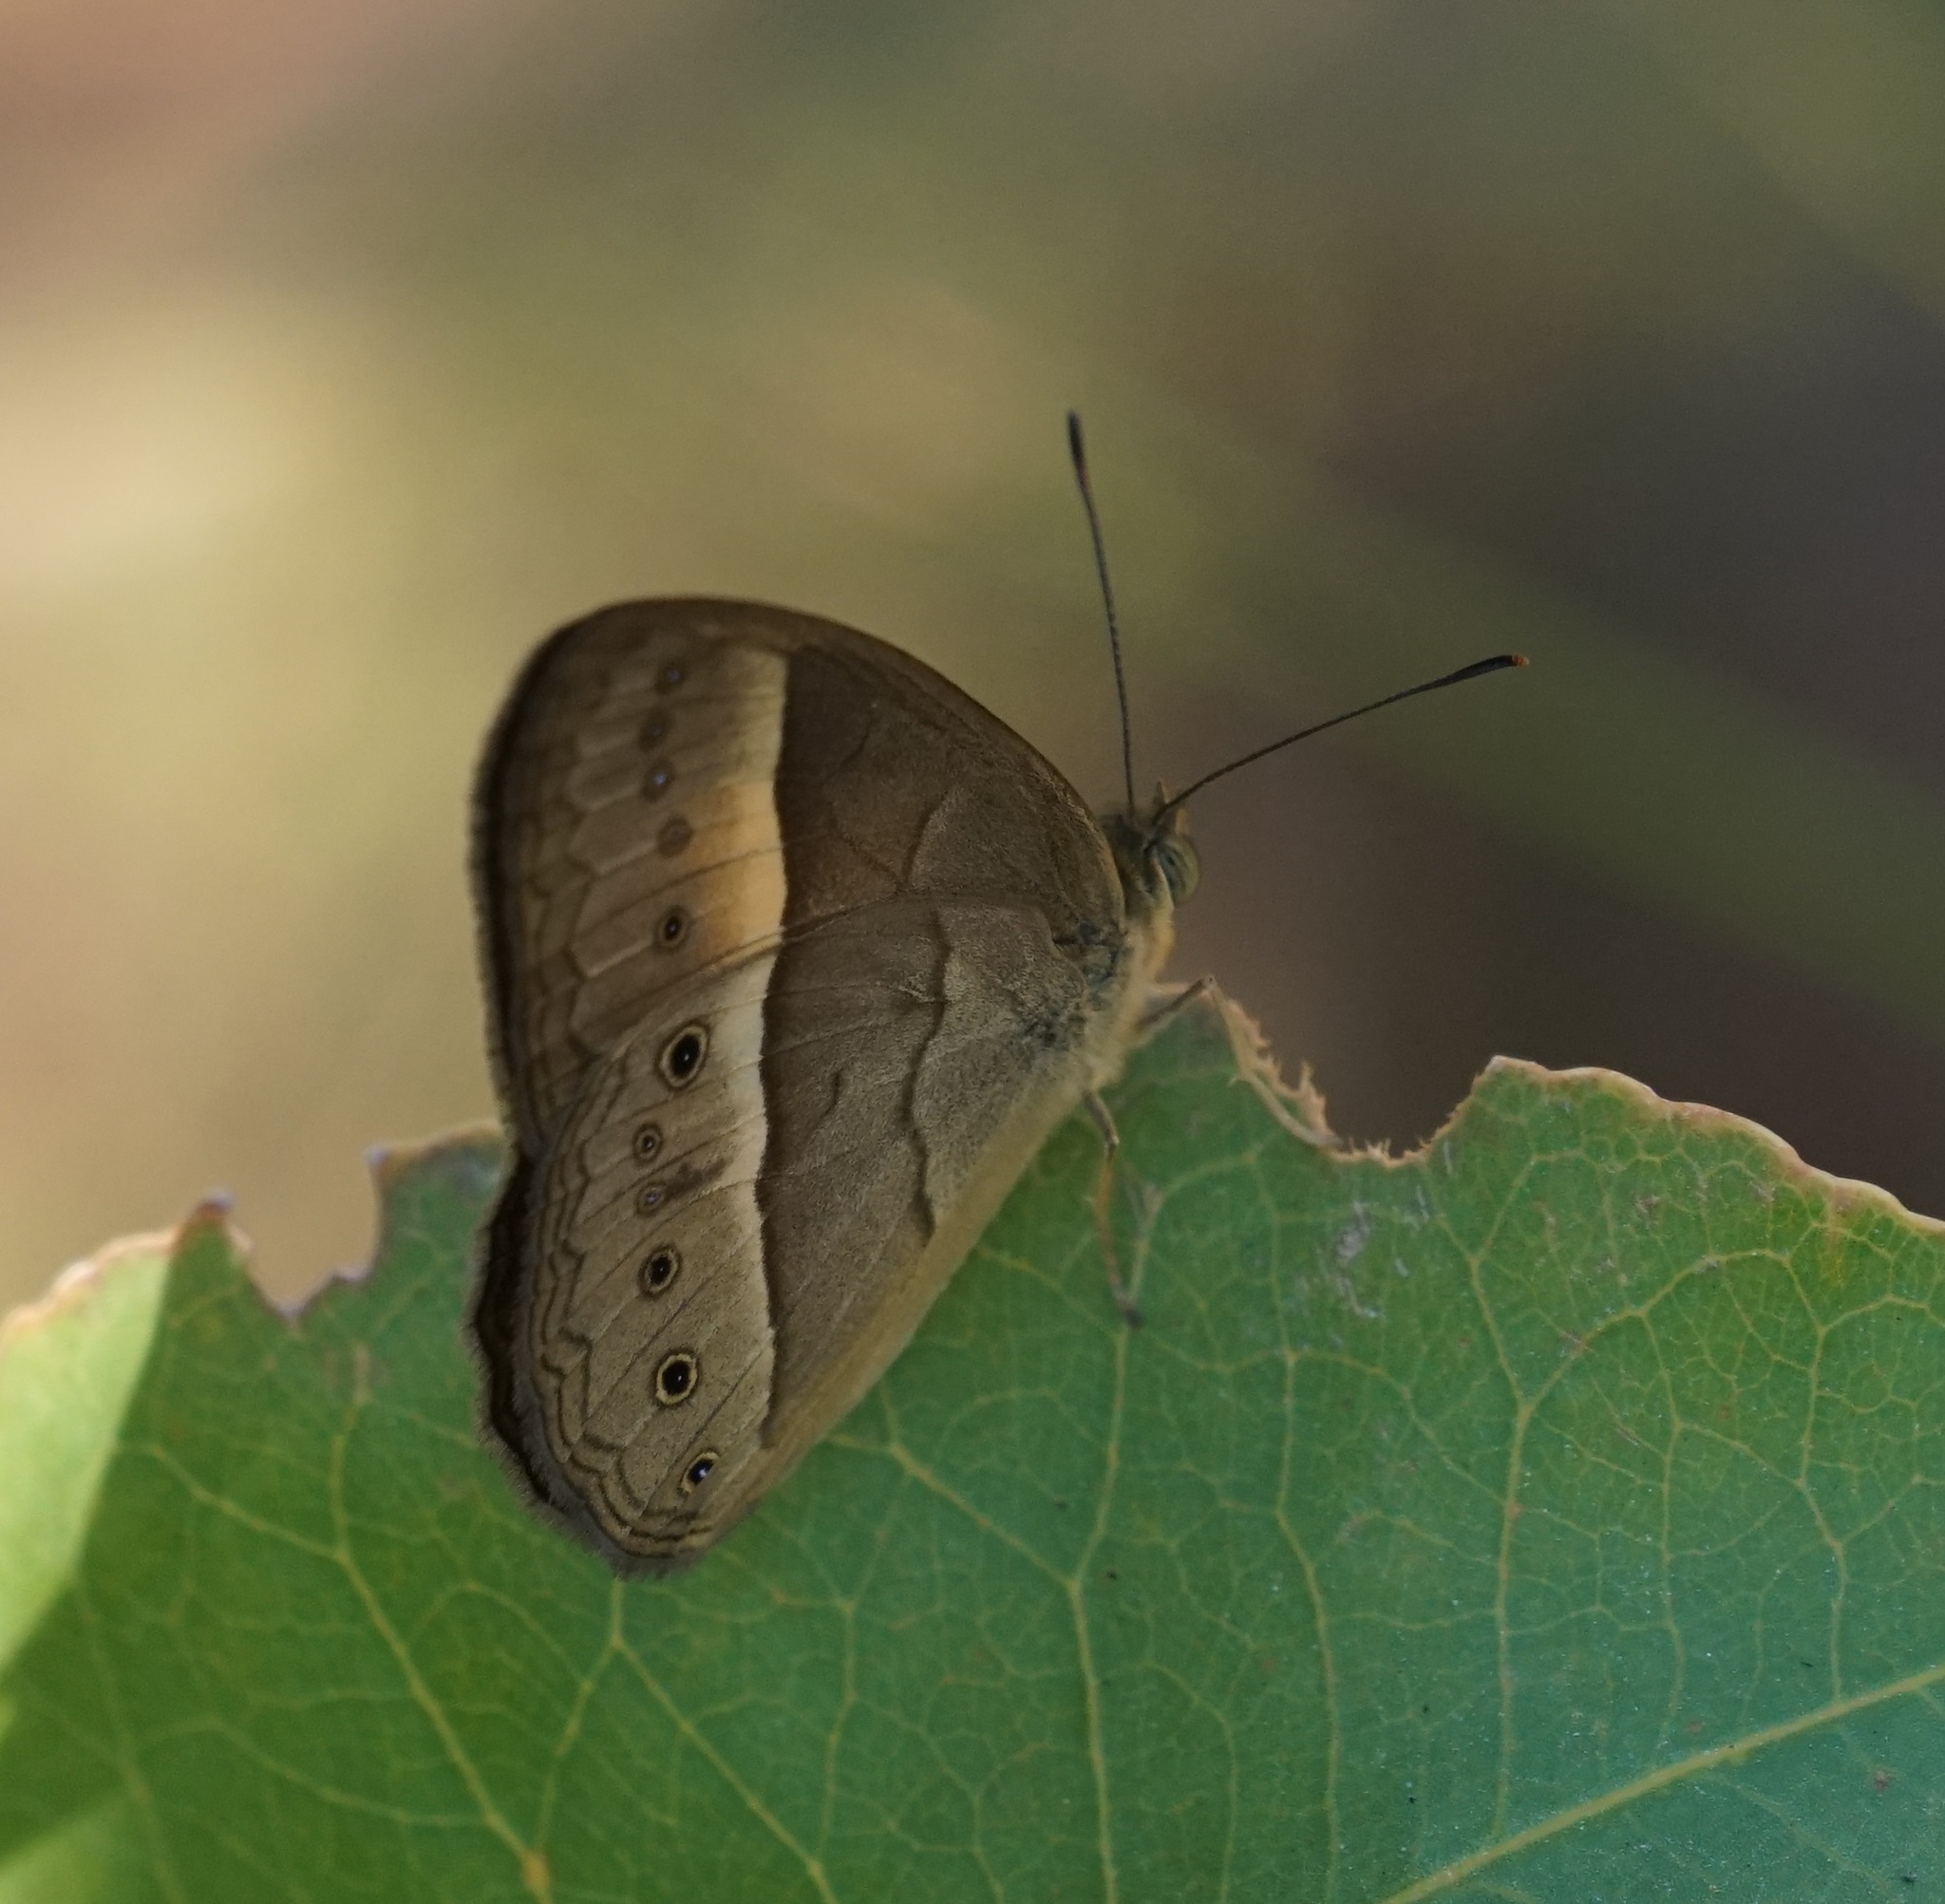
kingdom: Animalia
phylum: Arthropoda
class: Insecta
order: Lepidoptera
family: Nymphalidae
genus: Mycalesis
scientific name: Mycalesis terminus
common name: Orange bushbrown
